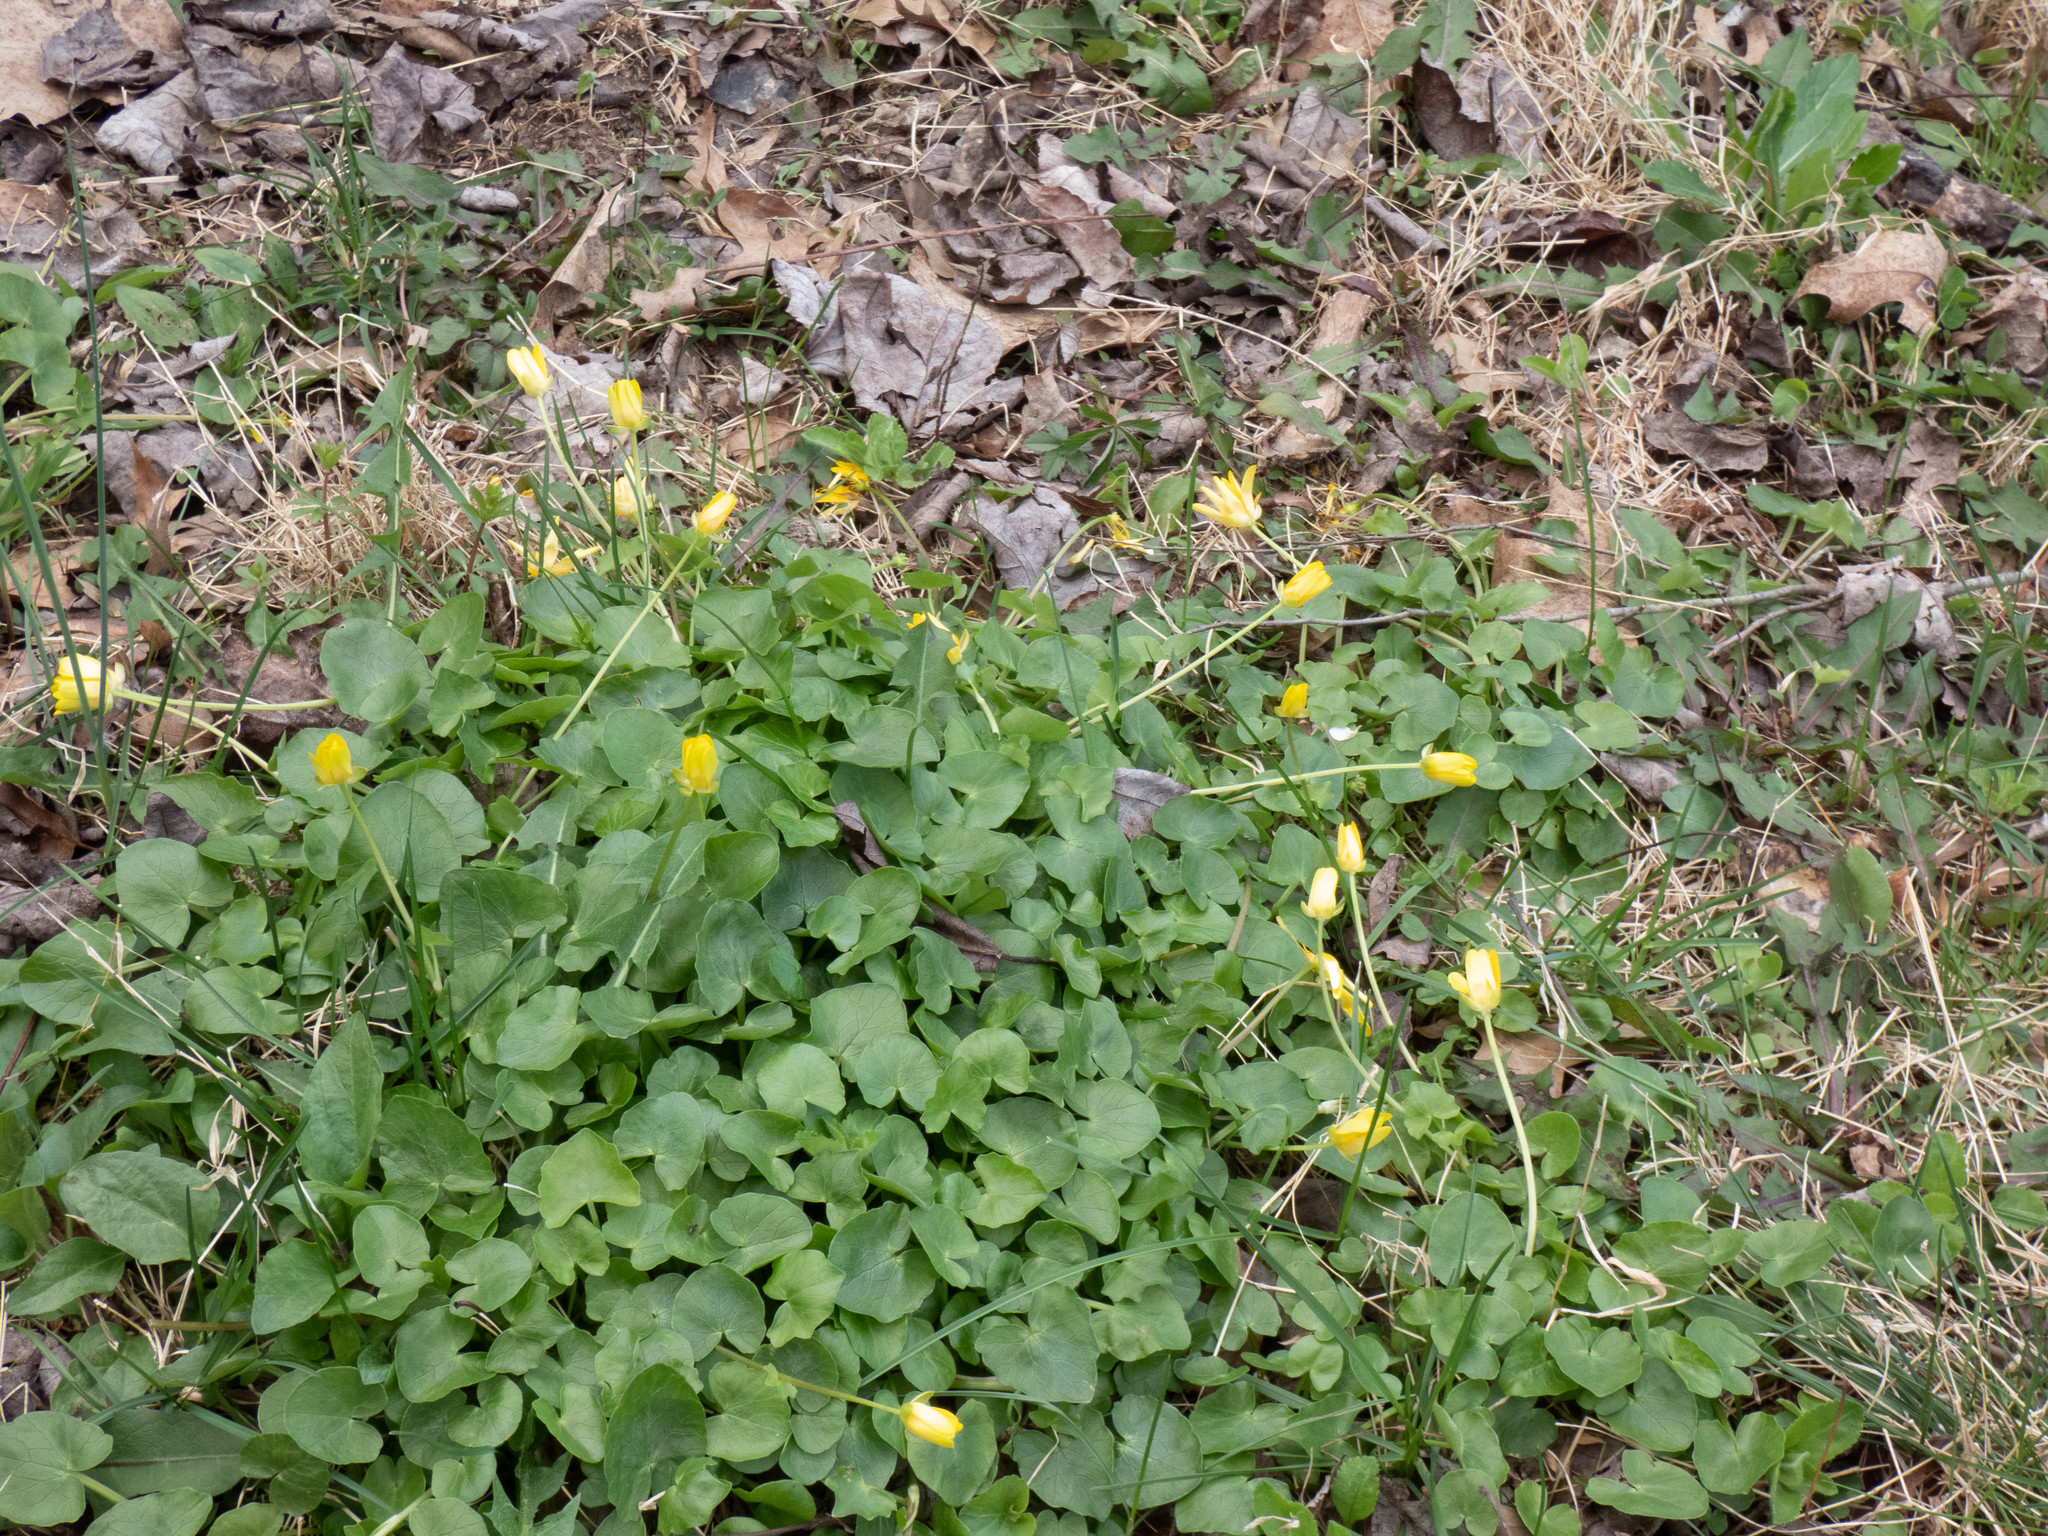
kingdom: Plantae
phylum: Tracheophyta
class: Magnoliopsida
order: Ranunculales
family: Ranunculaceae
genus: Ficaria
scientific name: Ficaria verna
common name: Lesser celandine
